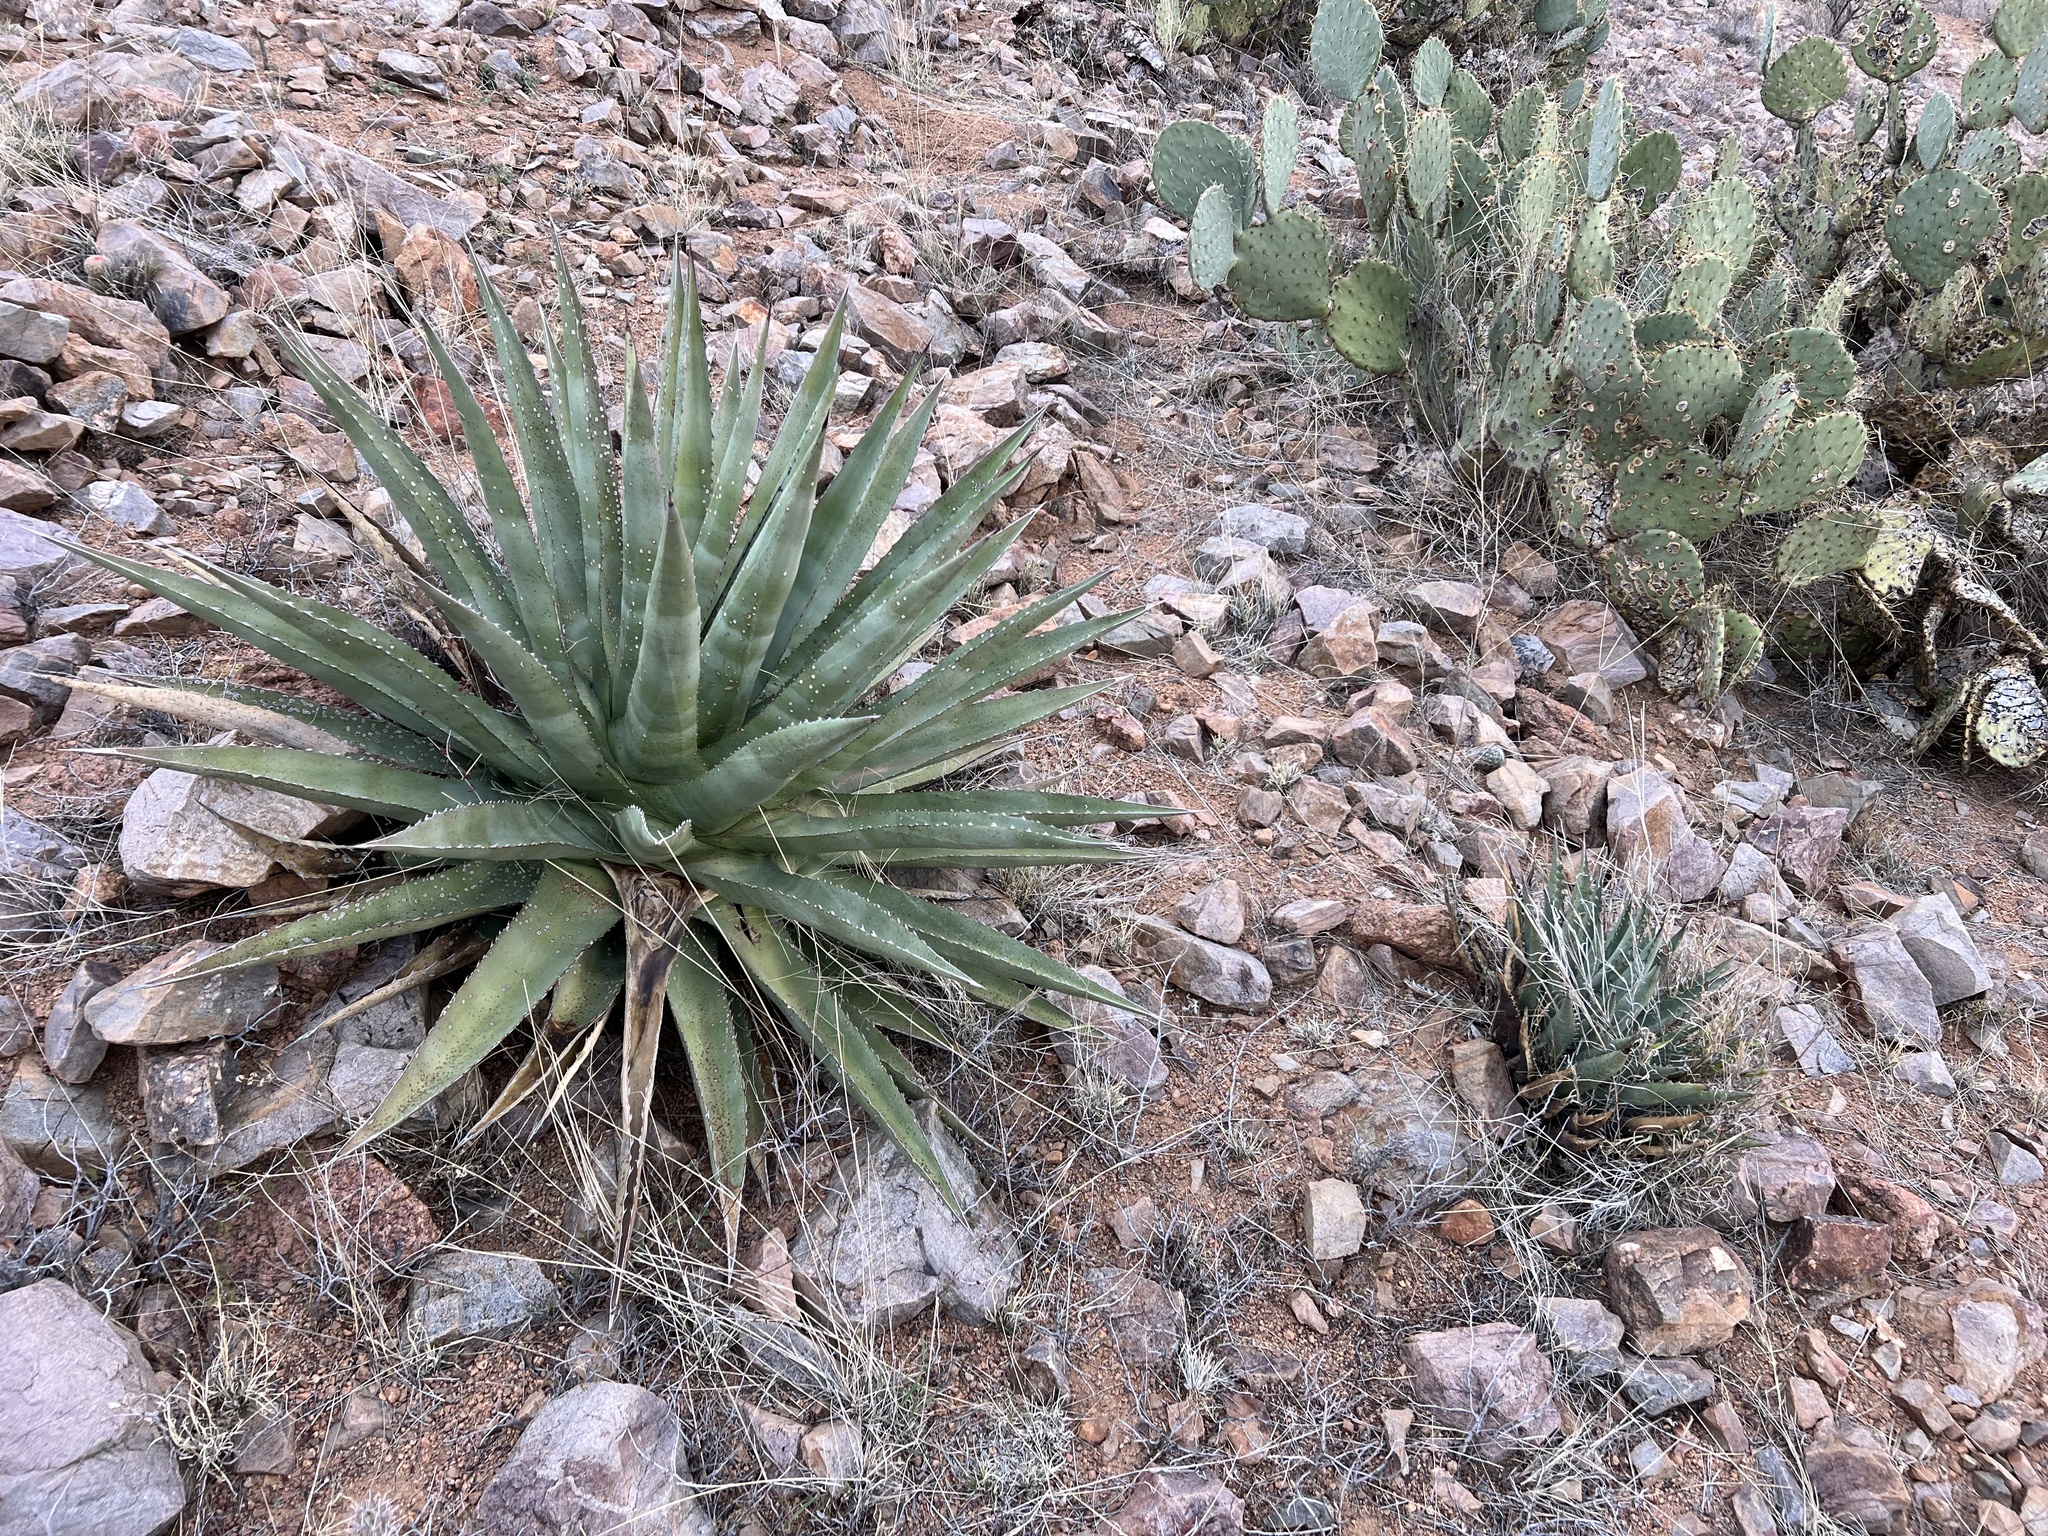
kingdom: Plantae
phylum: Tracheophyta
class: Liliopsida
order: Asparagales
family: Asparagaceae
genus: Agave
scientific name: Agave palmeri
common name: Palmer agave
